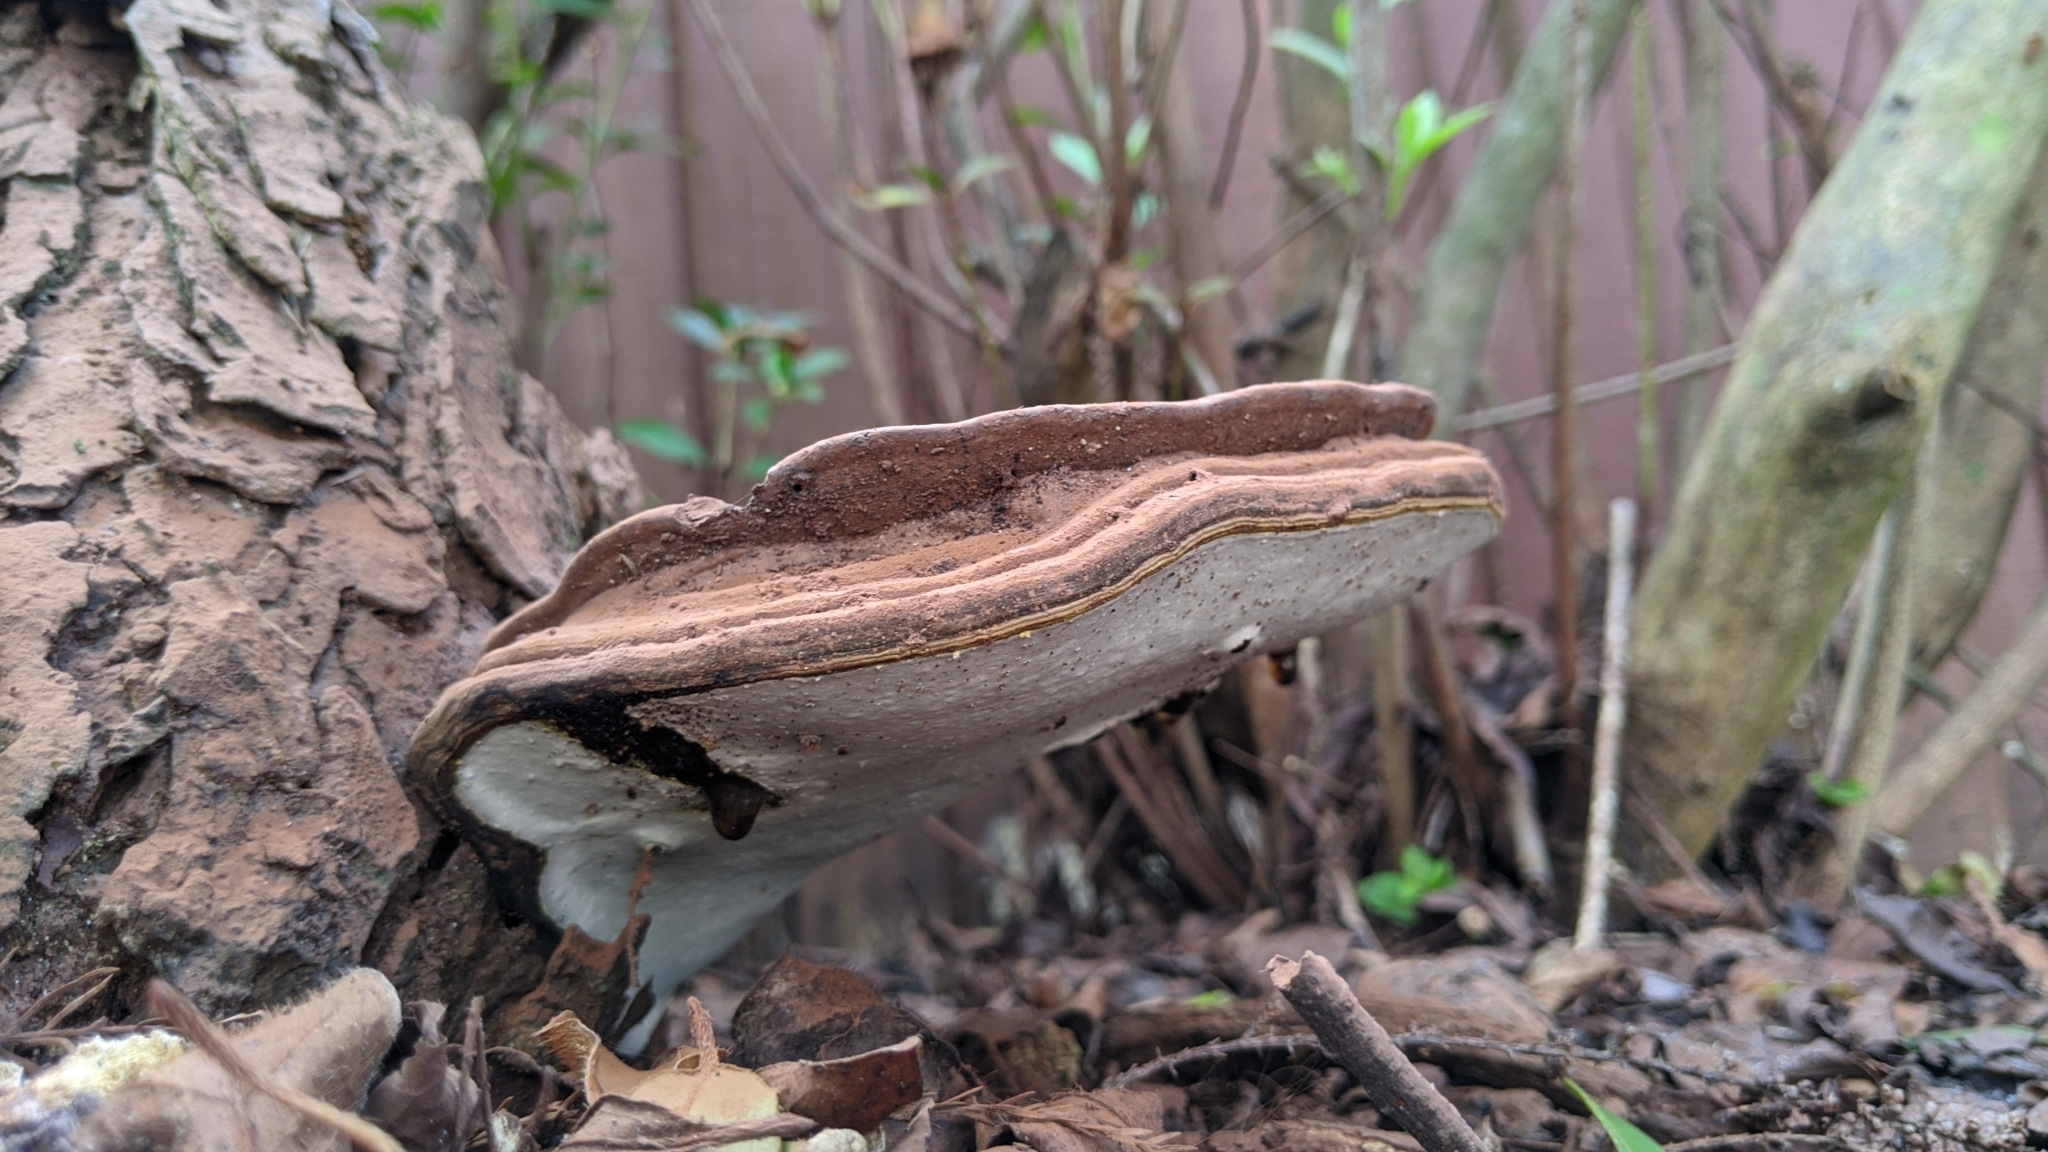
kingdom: Fungi
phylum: Basidiomycota
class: Agaricomycetes
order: Polyporales
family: Polyporaceae
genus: Ganoderma
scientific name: Ganoderma applanatum
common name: Artist's bracket
